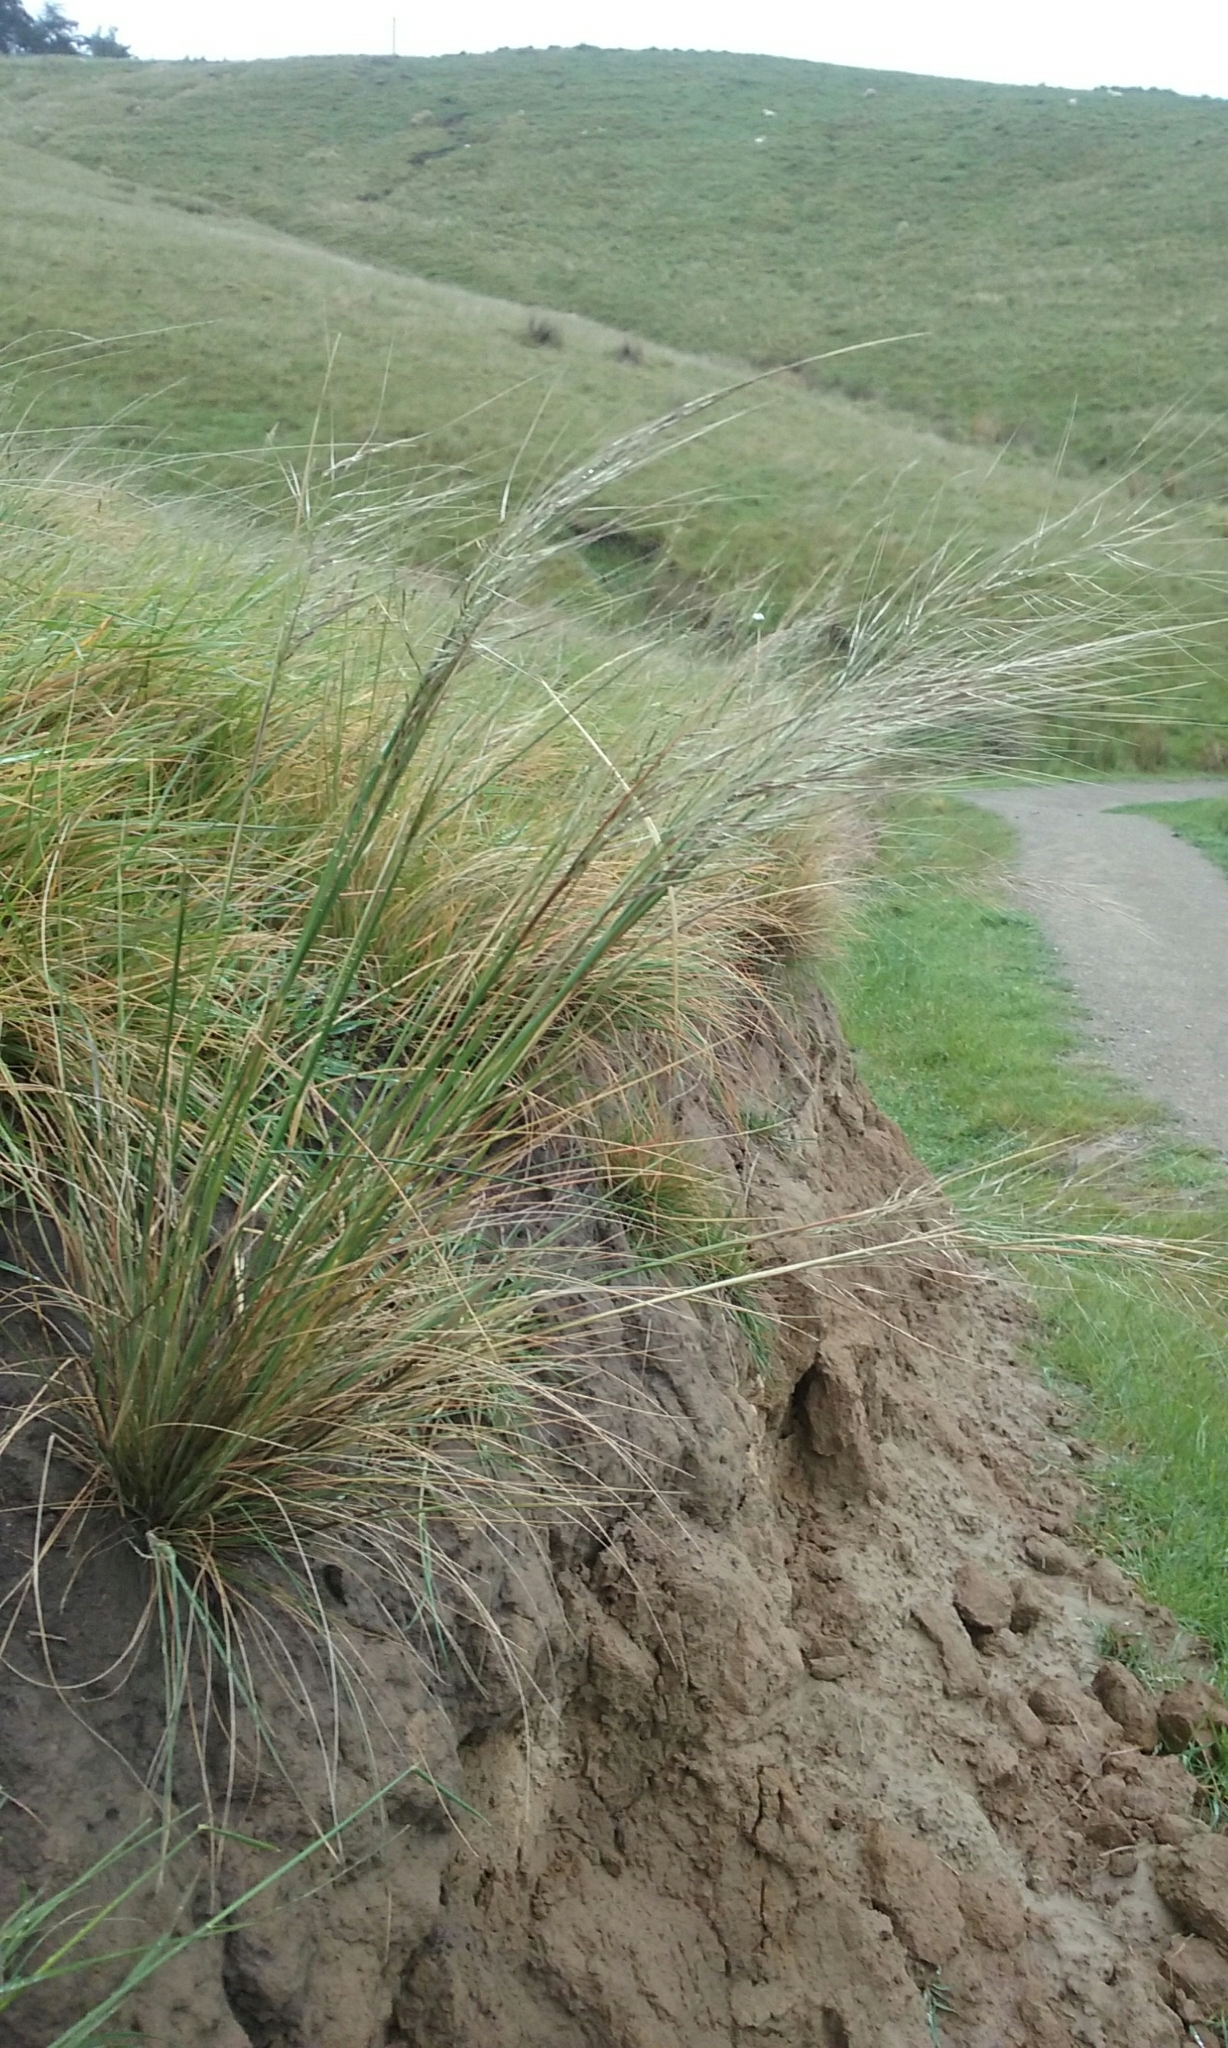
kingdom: Plantae
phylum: Tracheophyta
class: Liliopsida
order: Poales
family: Poaceae
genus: Austrostipa
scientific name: Austrostipa bigeniculata
